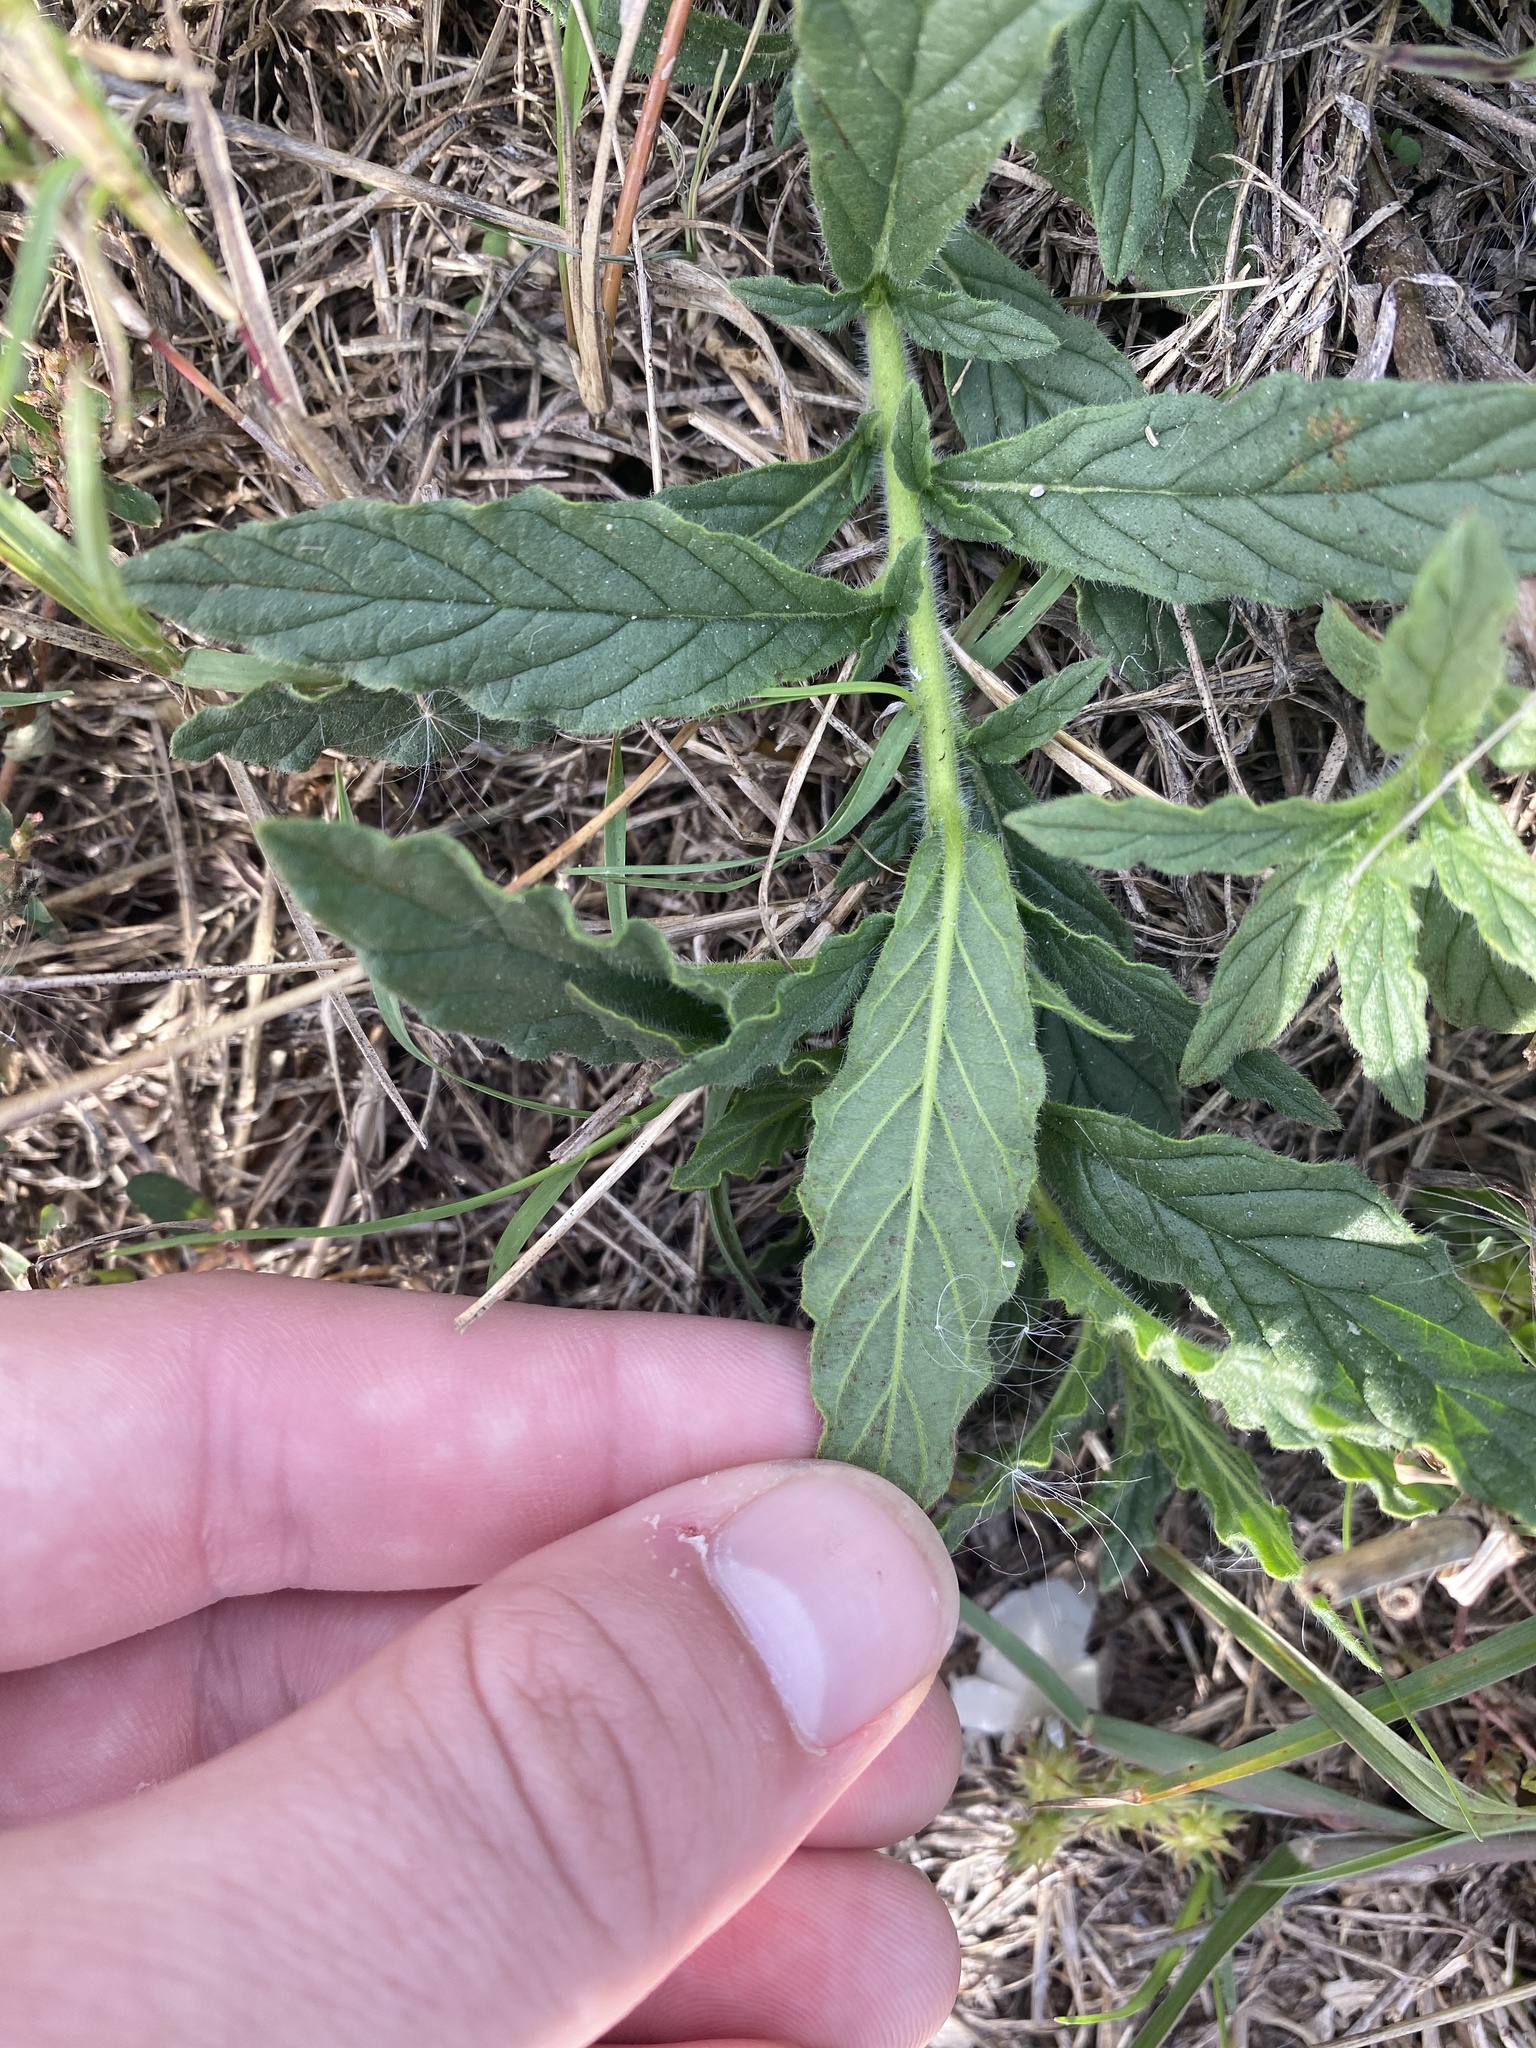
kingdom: Plantae
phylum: Tracheophyta
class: Magnoliopsida
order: Boraginales
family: Heliotropiaceae
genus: Heliotropium
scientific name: Heliotropium amplexicaule
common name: Clasping heliotrope
